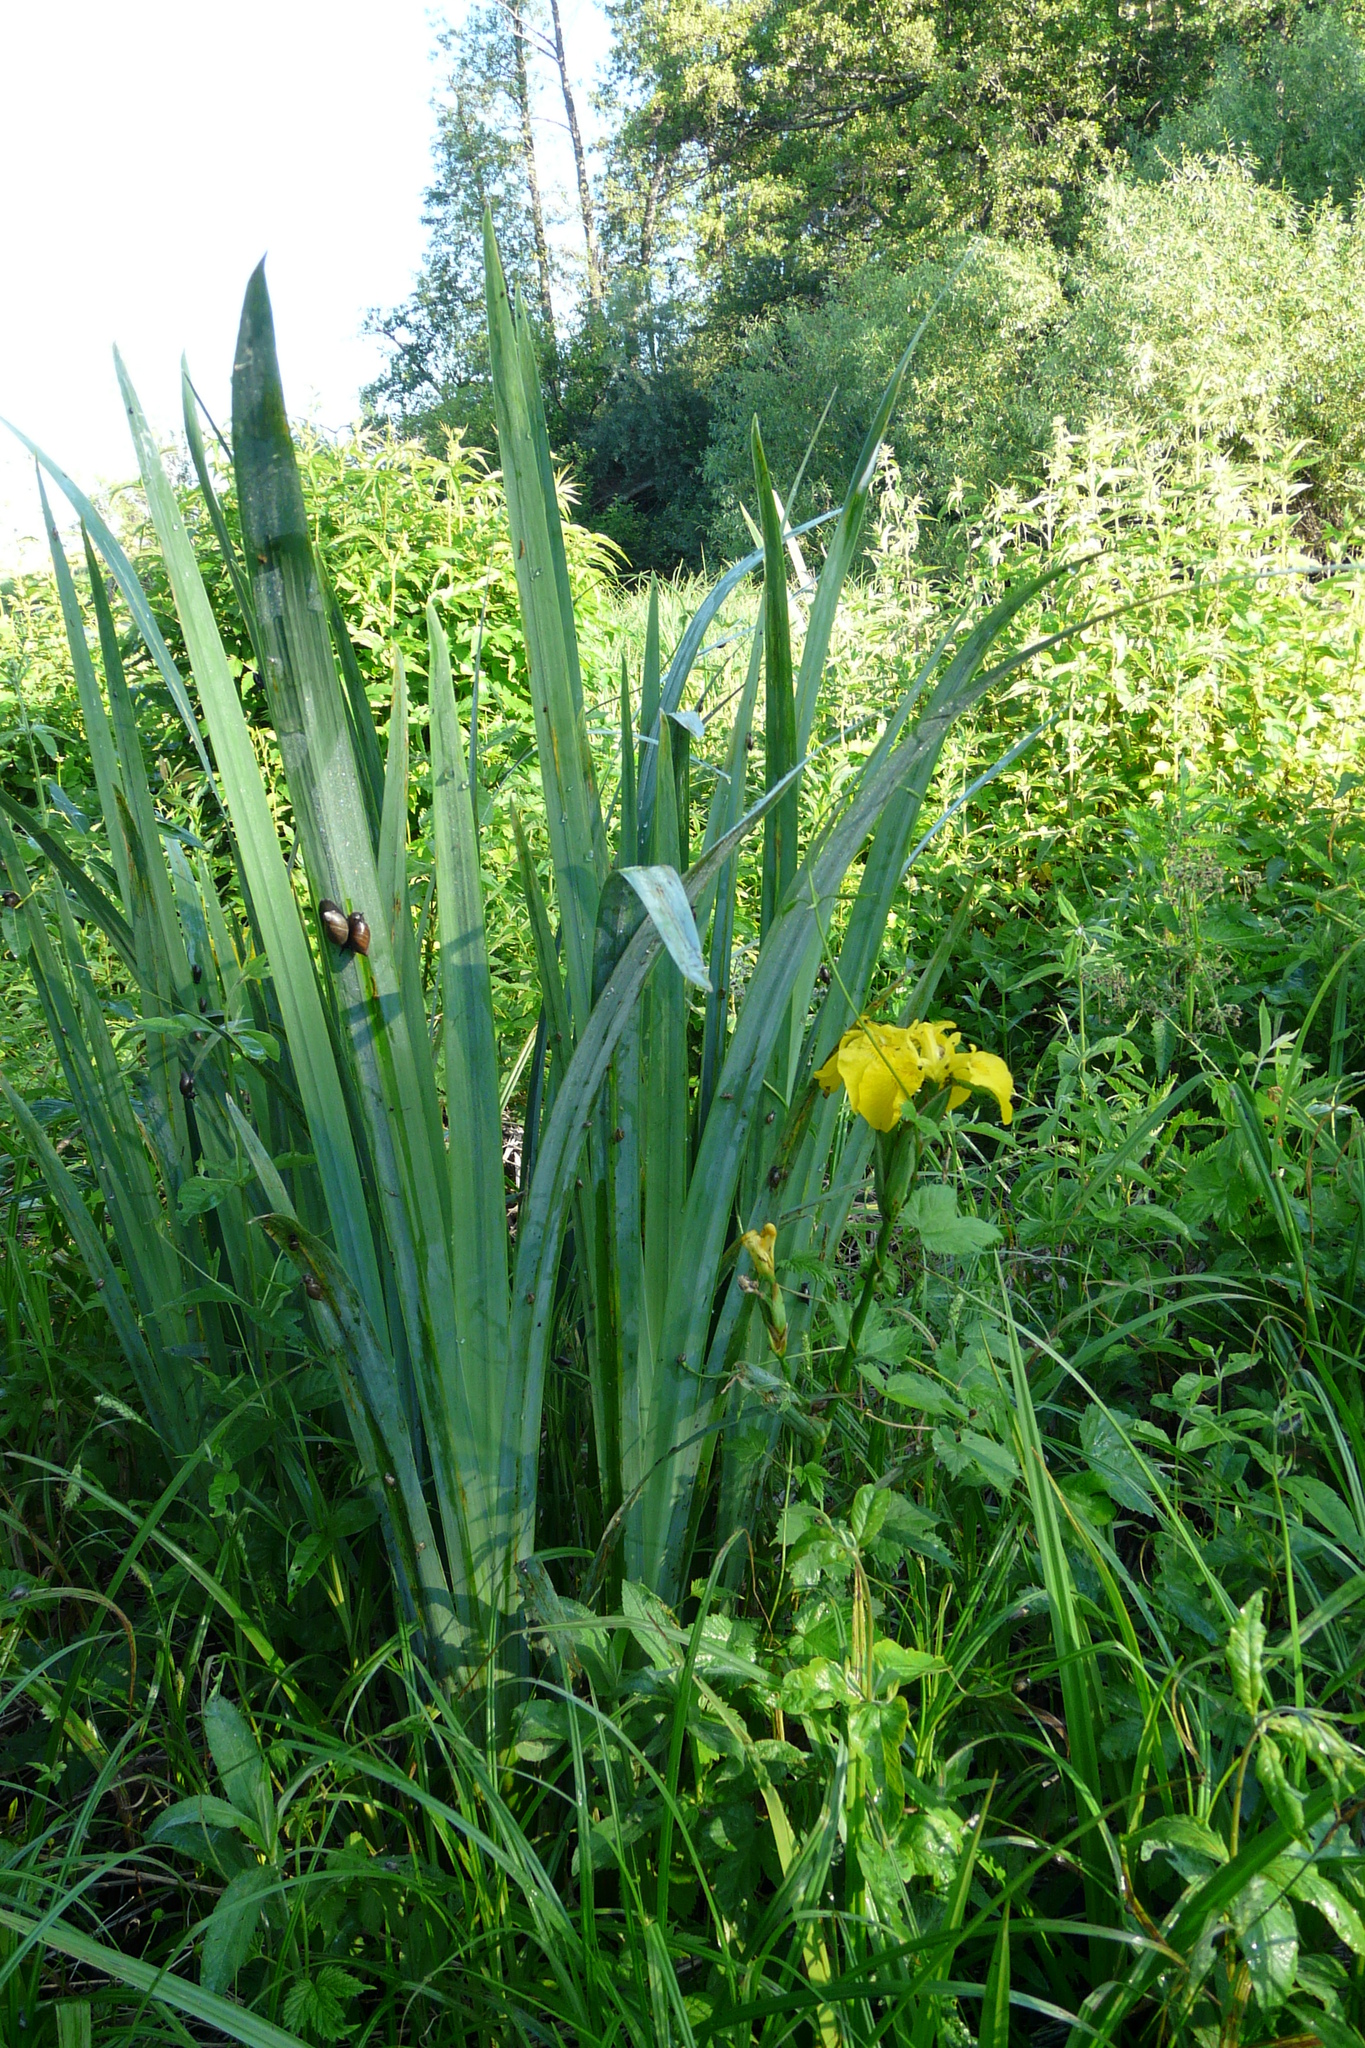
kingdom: Plantae
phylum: Tracheophyta
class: Liliopsida
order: Asparagales
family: Iridaceae
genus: Iris
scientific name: Iris pseudacorus
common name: Yellow flag
